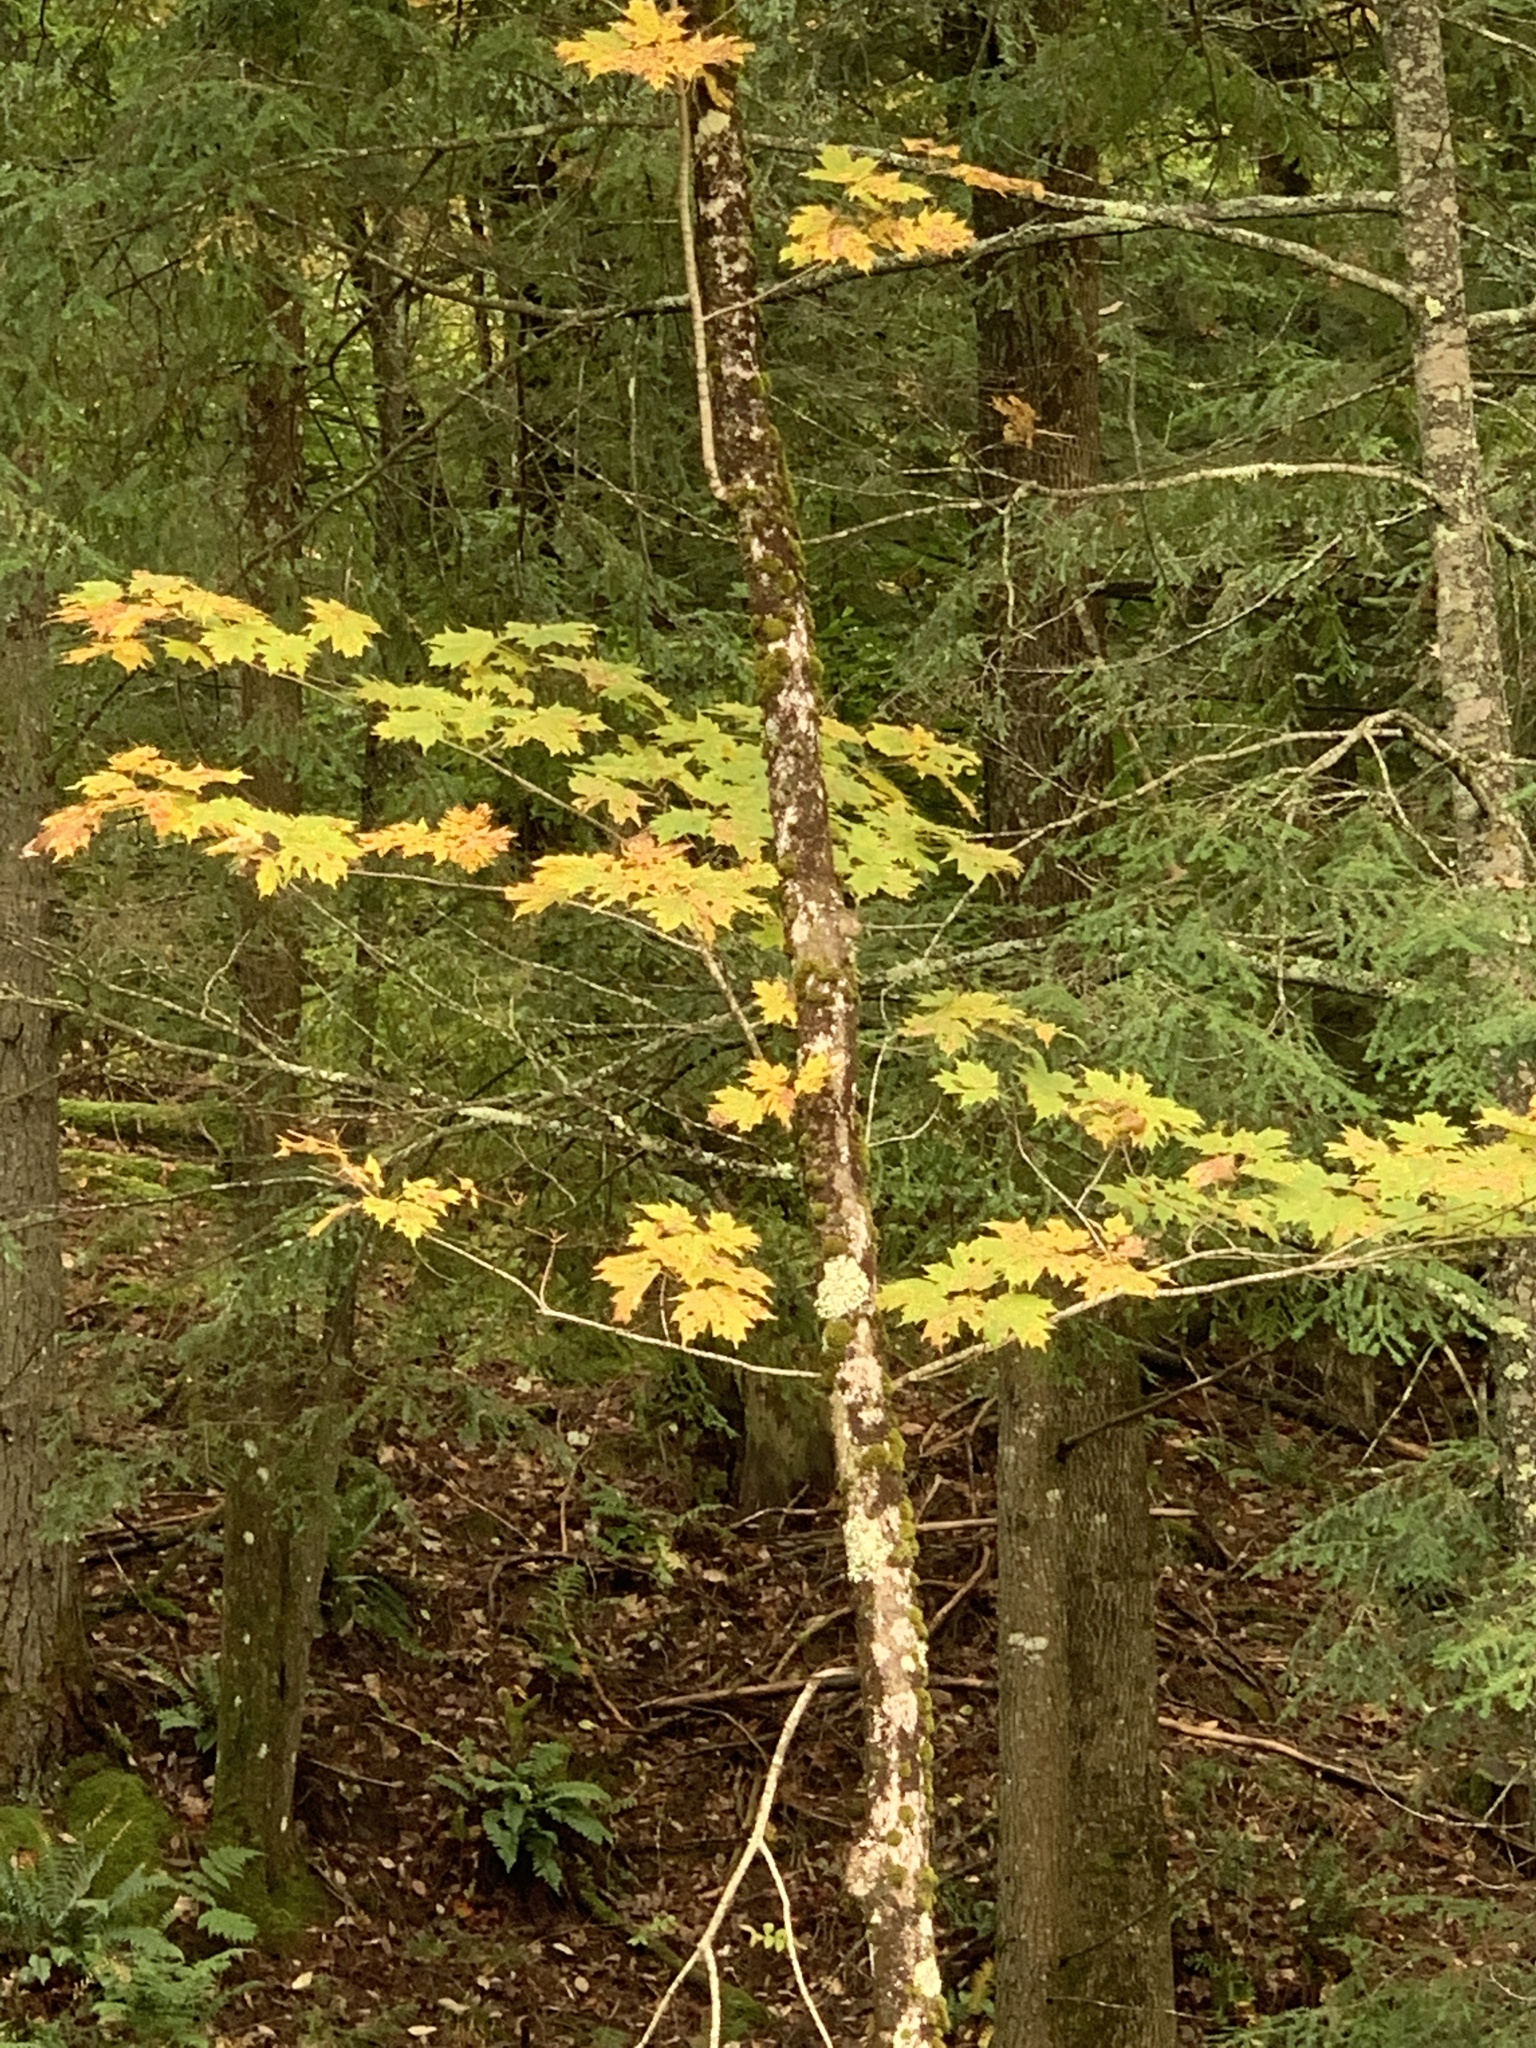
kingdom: Plantae
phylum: Tracheophyta
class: Magnoliopsida
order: Sapindales
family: Sapindaceae
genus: Acer
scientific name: Acer saccharum
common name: Sugar maple
